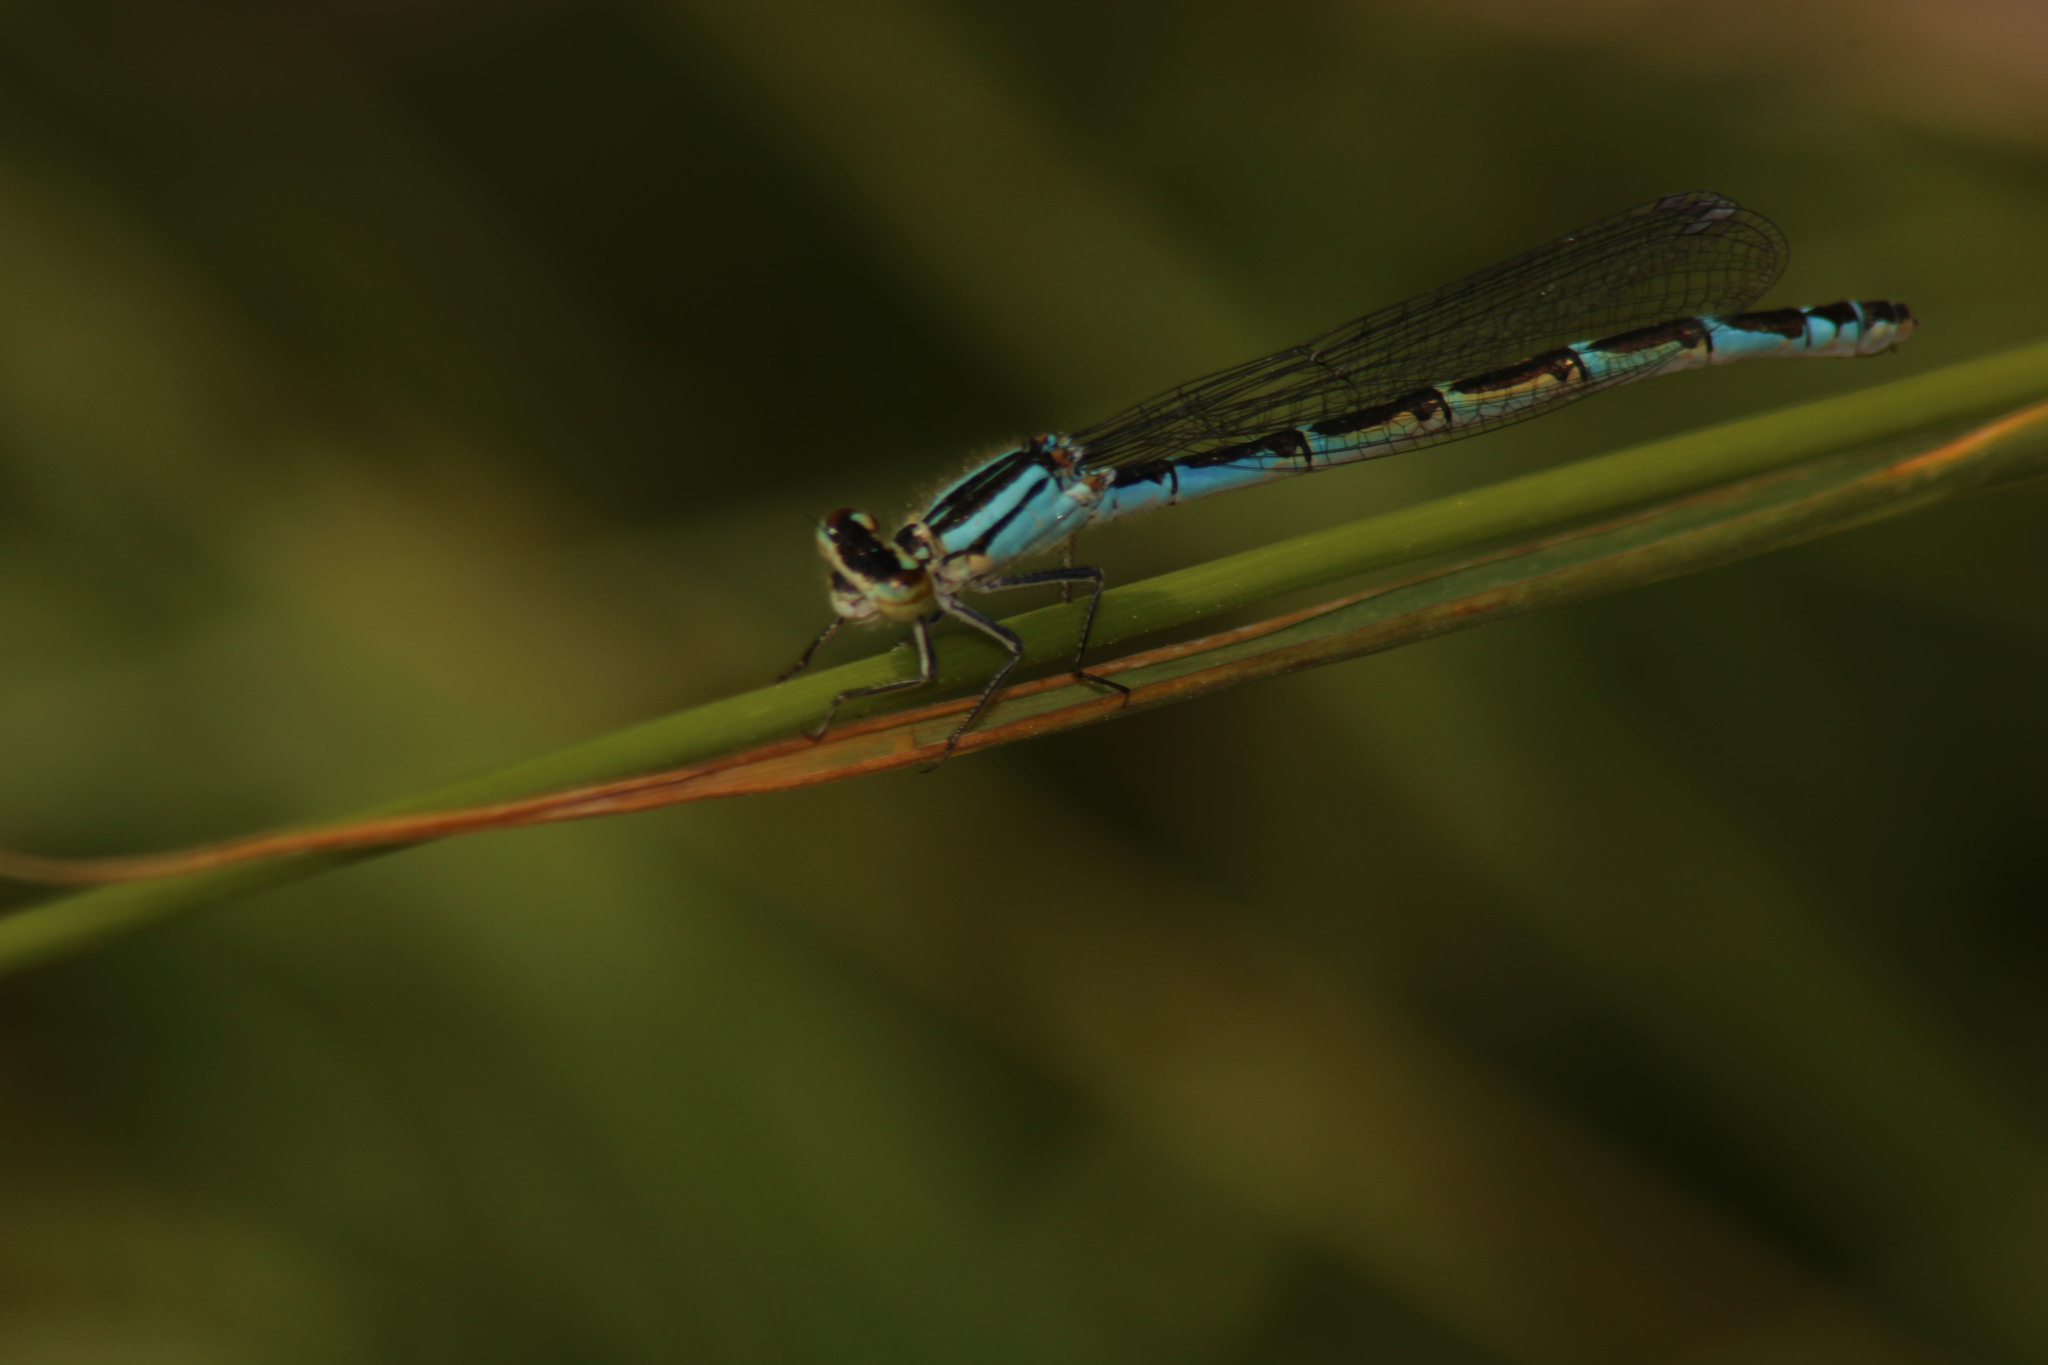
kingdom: Animalia
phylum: Arthropoda
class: Insecta
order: Odonata
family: Coenagrionidae
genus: Enallagma
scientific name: Enallagma cyathigerum
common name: Common blue damselfly
